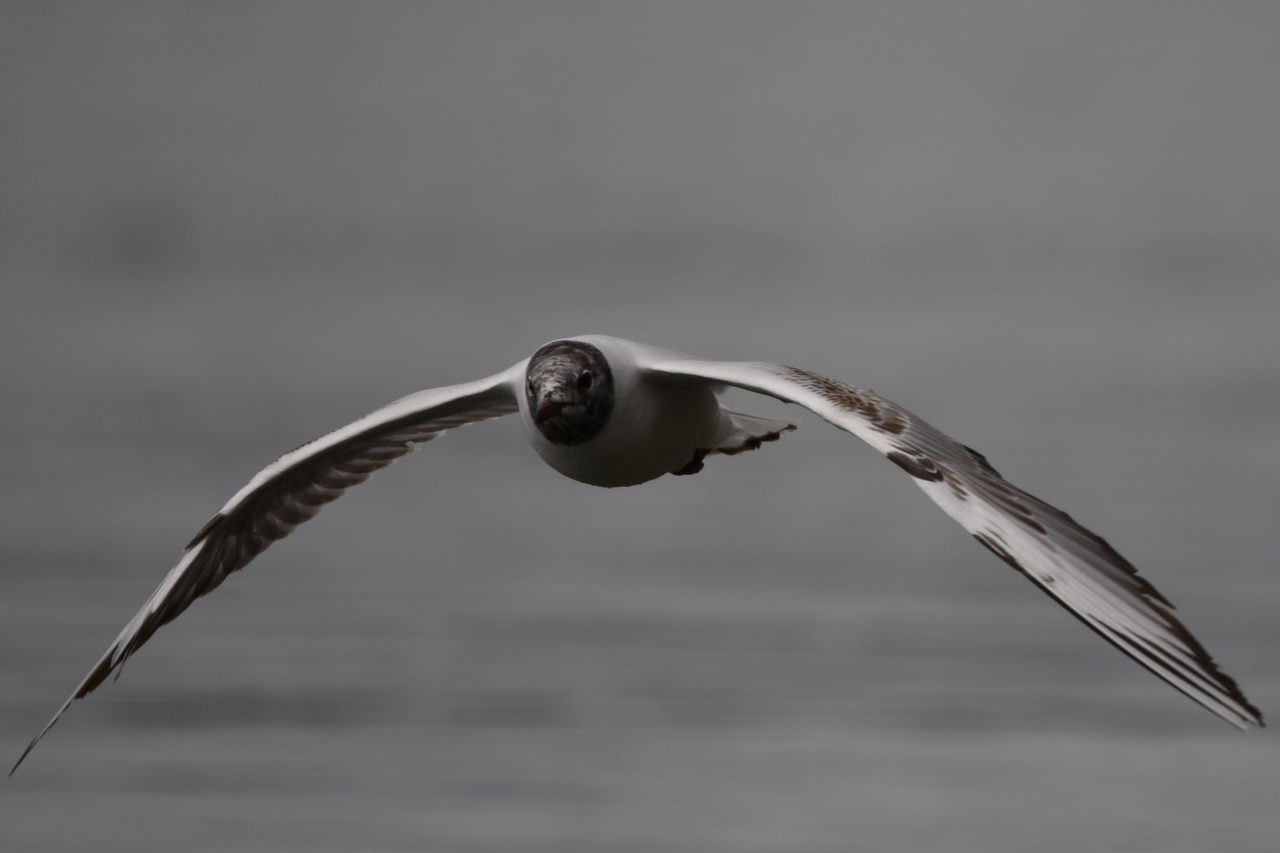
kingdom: Animalia
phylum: Chordata
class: Aves
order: Charadriiformes
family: Laridae
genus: Chroicocephalus
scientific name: Chroicocephalus ridibundus
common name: Black-headed gull
